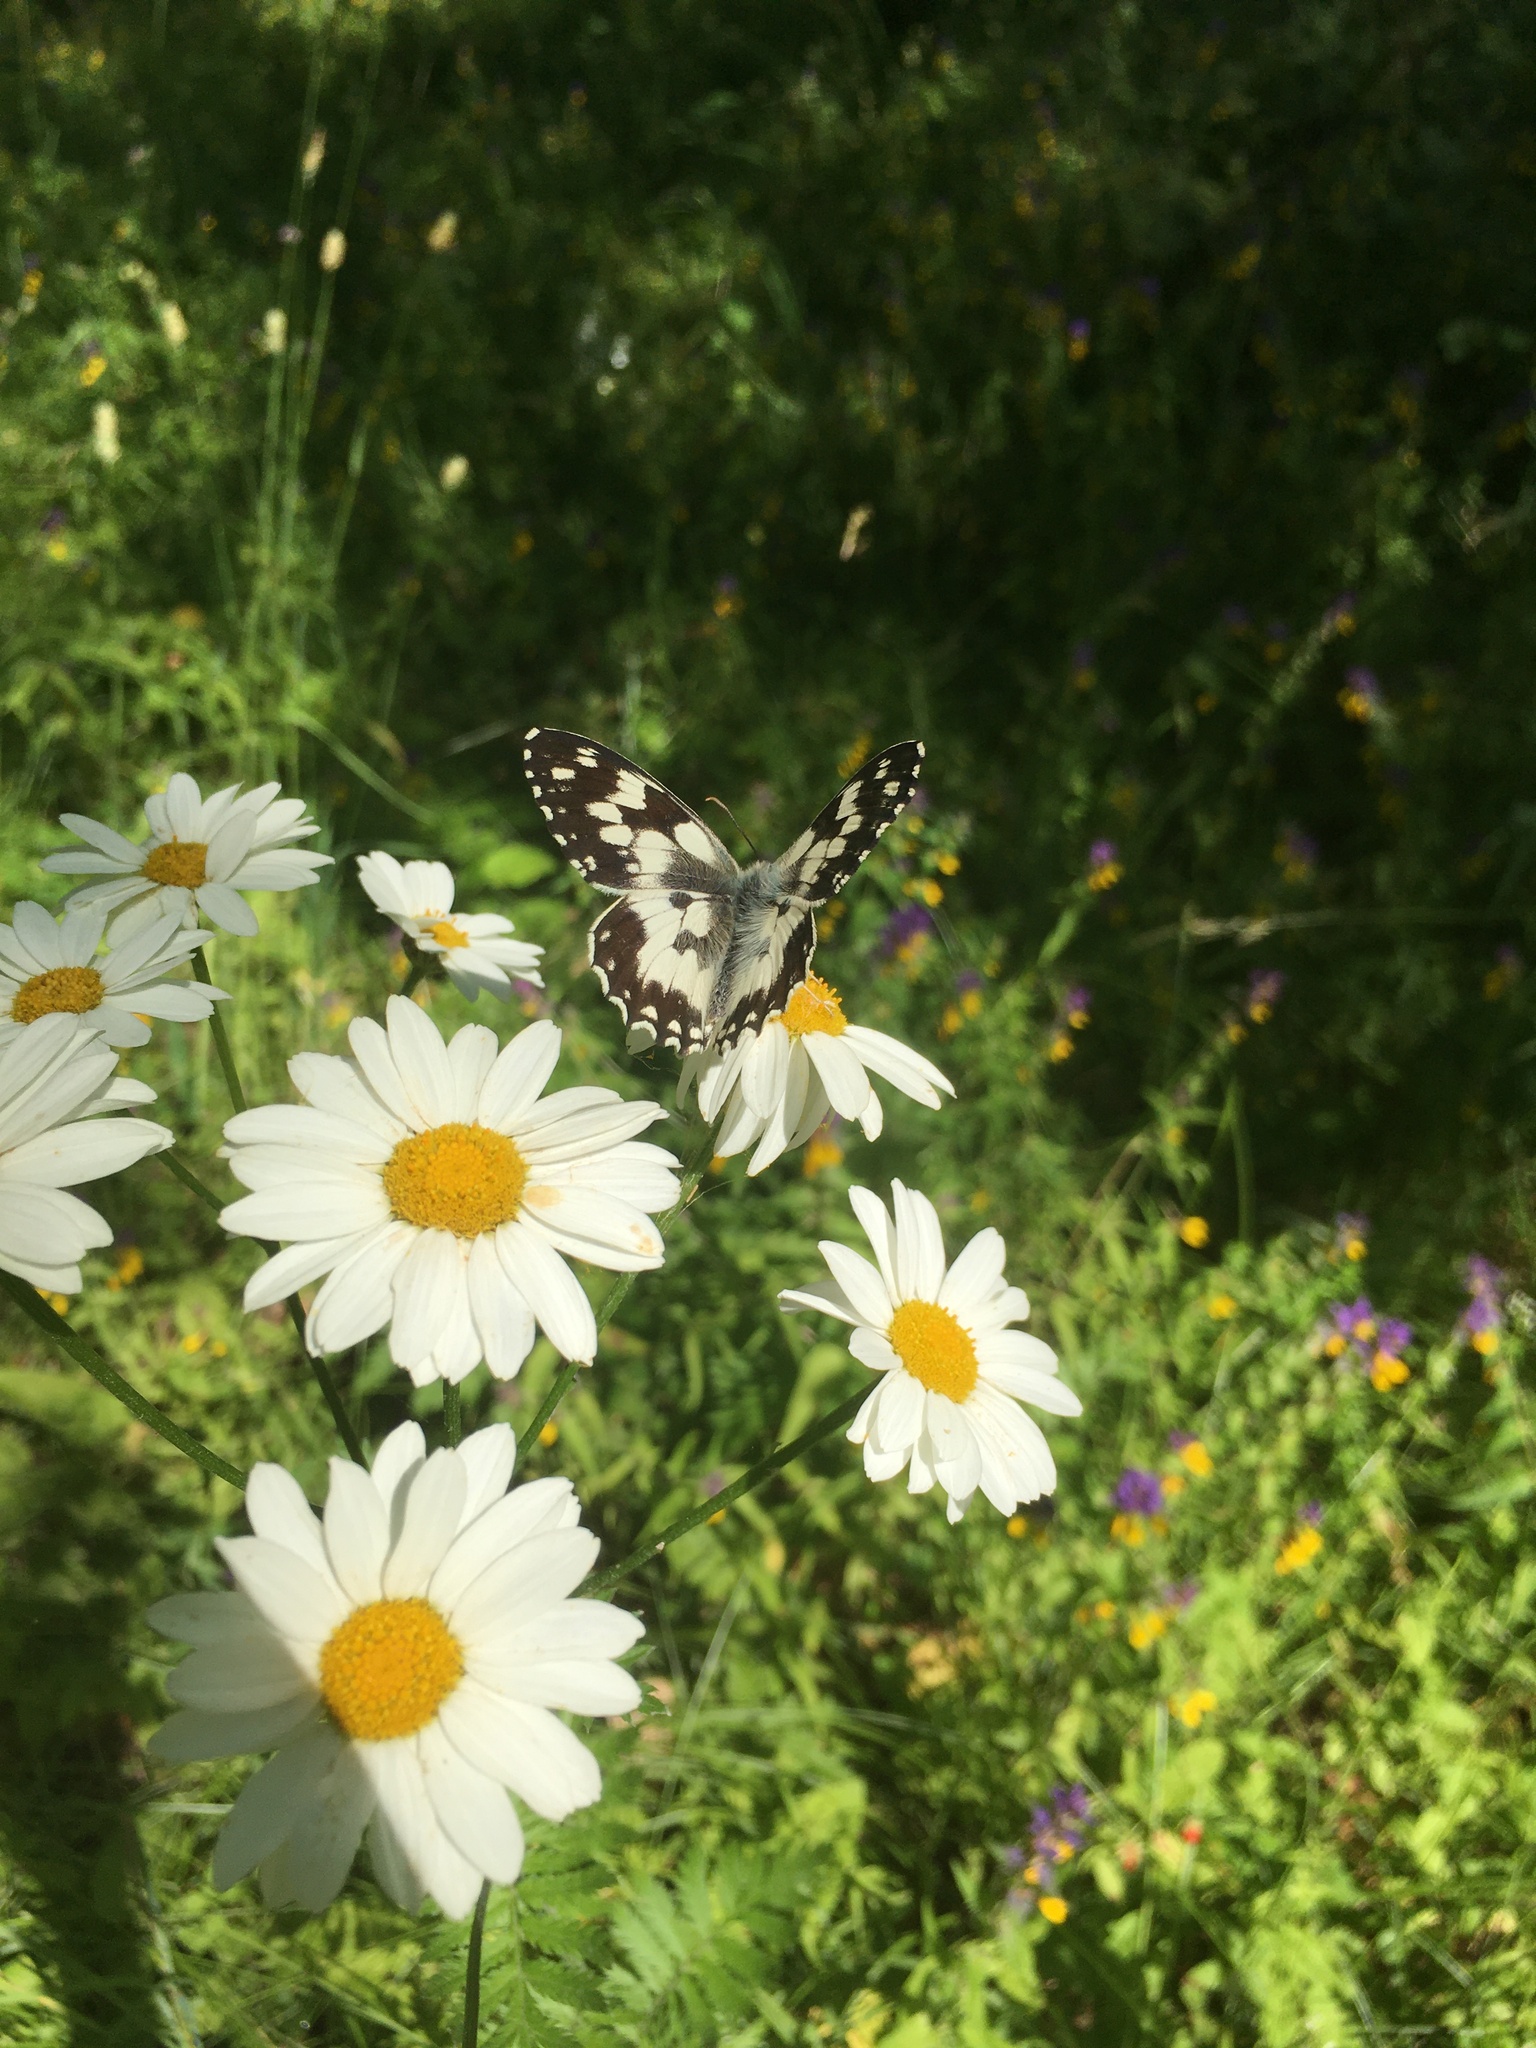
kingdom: Animalia
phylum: Arthropoda
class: Insecta
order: Lepidoptera
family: Nymphalidae
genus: Melanargia
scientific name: Melanargia galathea
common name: Marbled white
